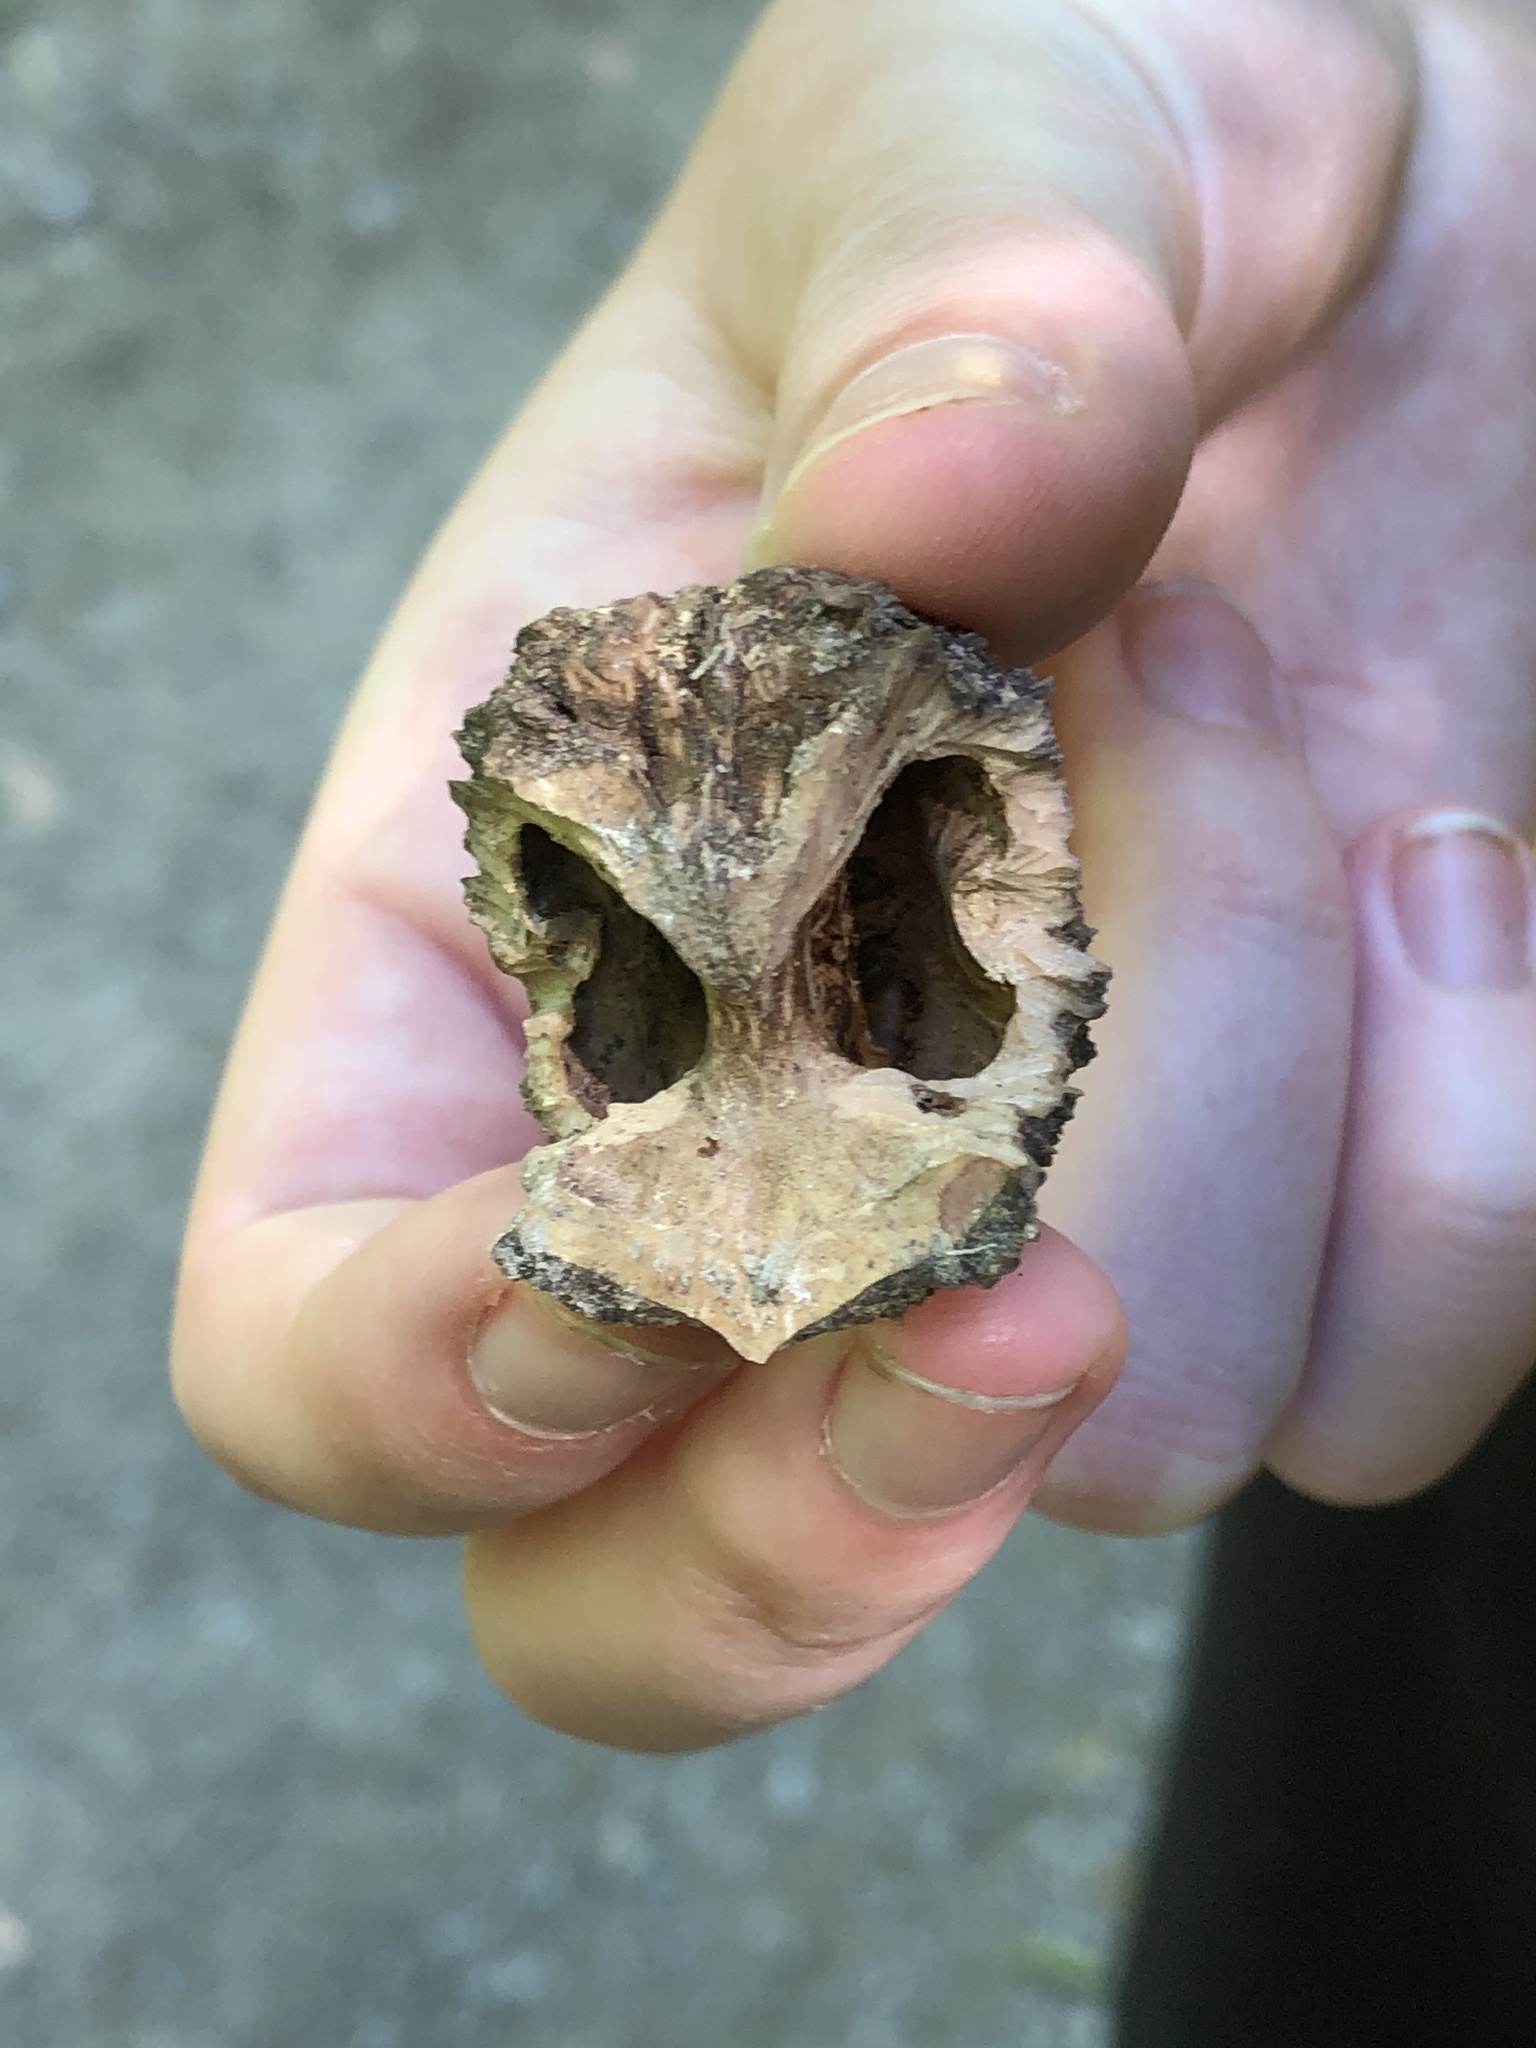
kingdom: Plantae
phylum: Tracheophyta
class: Magnoliopsida
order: Fagales
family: Juglandaceae
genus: Juglans
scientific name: Juglans nigra
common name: Black walnut
